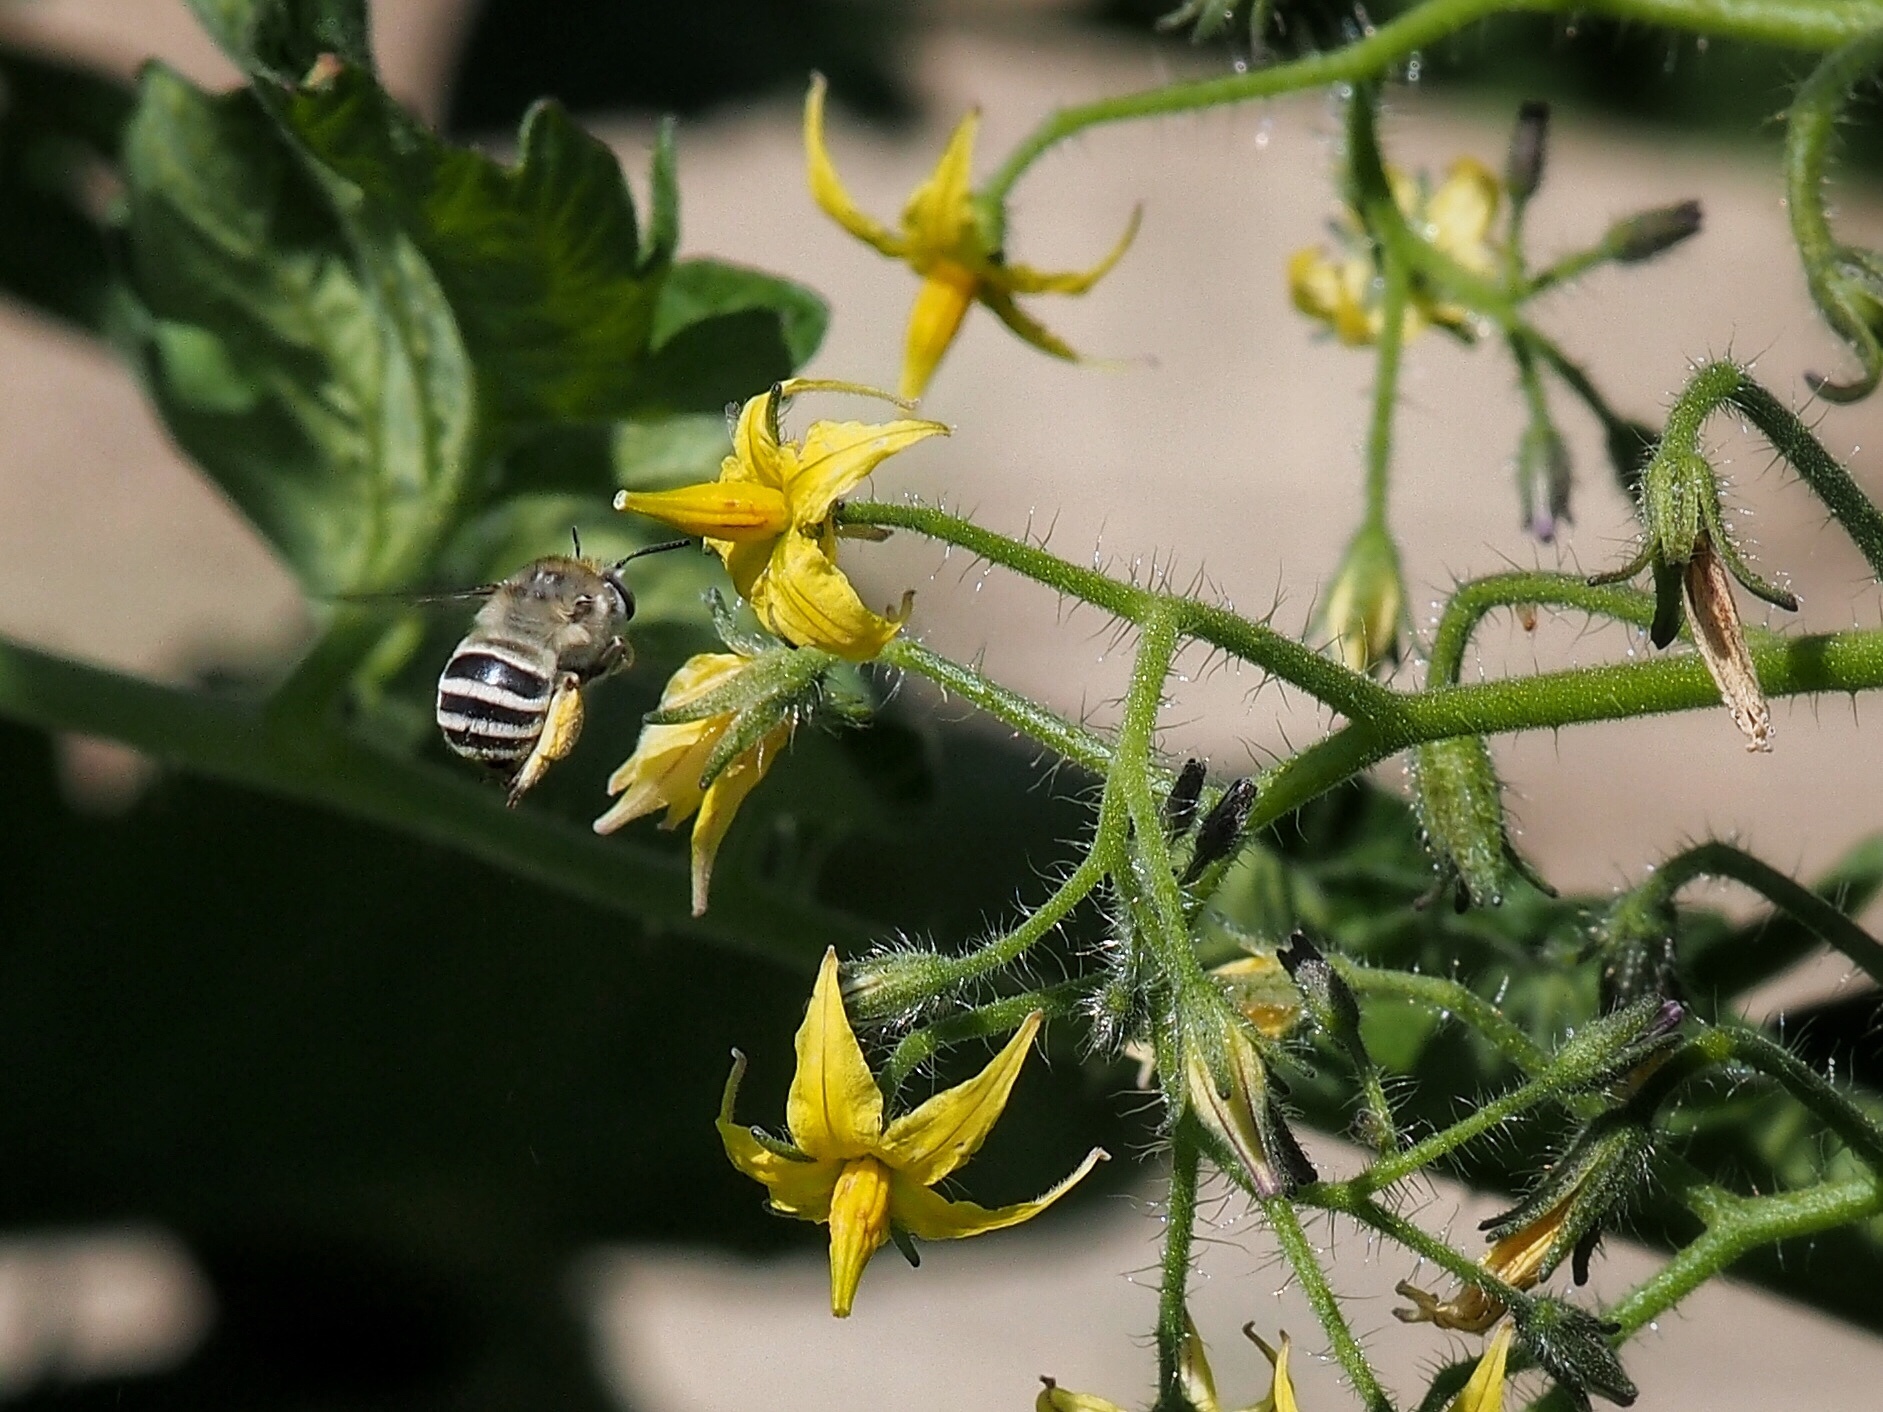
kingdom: Animalia
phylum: Arthropoda
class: Insecta
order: Hymenoptera
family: Apidae
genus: Anthophora
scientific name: Anthophora urbana
